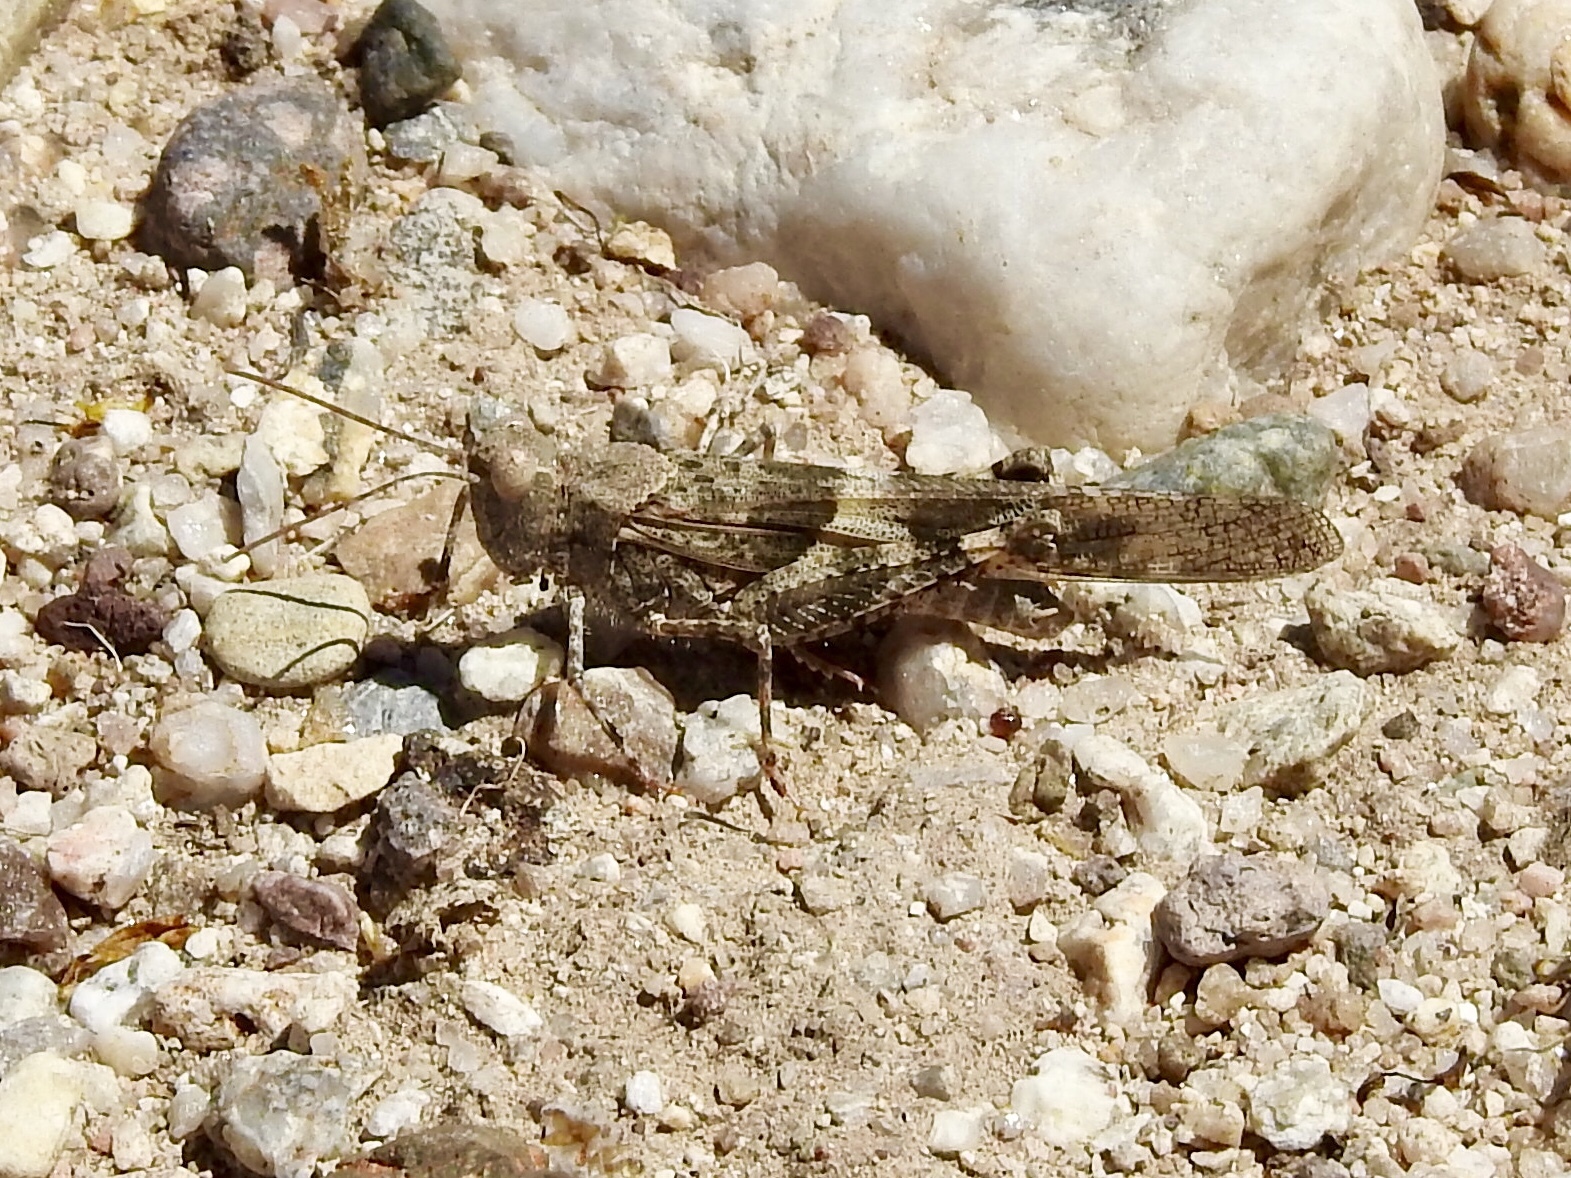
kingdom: Animalia
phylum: Arthropoda
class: Insecta
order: Orthoptera
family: Acrididae
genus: Trimerotropis
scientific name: Trimerotropis pallidipennis
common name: Pallid-winged grasshopper
